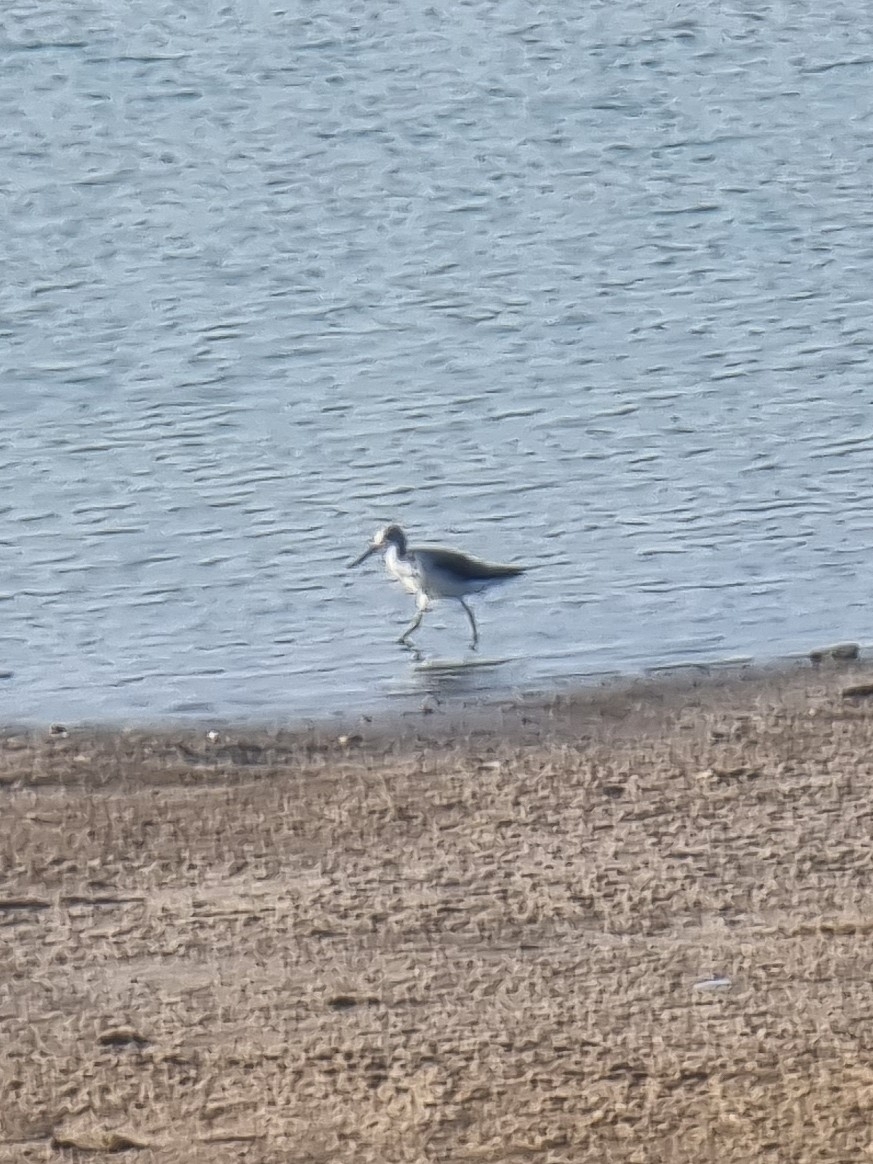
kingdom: Animalia
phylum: Chordata
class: Aves
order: Charadriiformes
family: Scolopacidae
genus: Tringa
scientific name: Tringa nebularia
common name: Common greenshank
